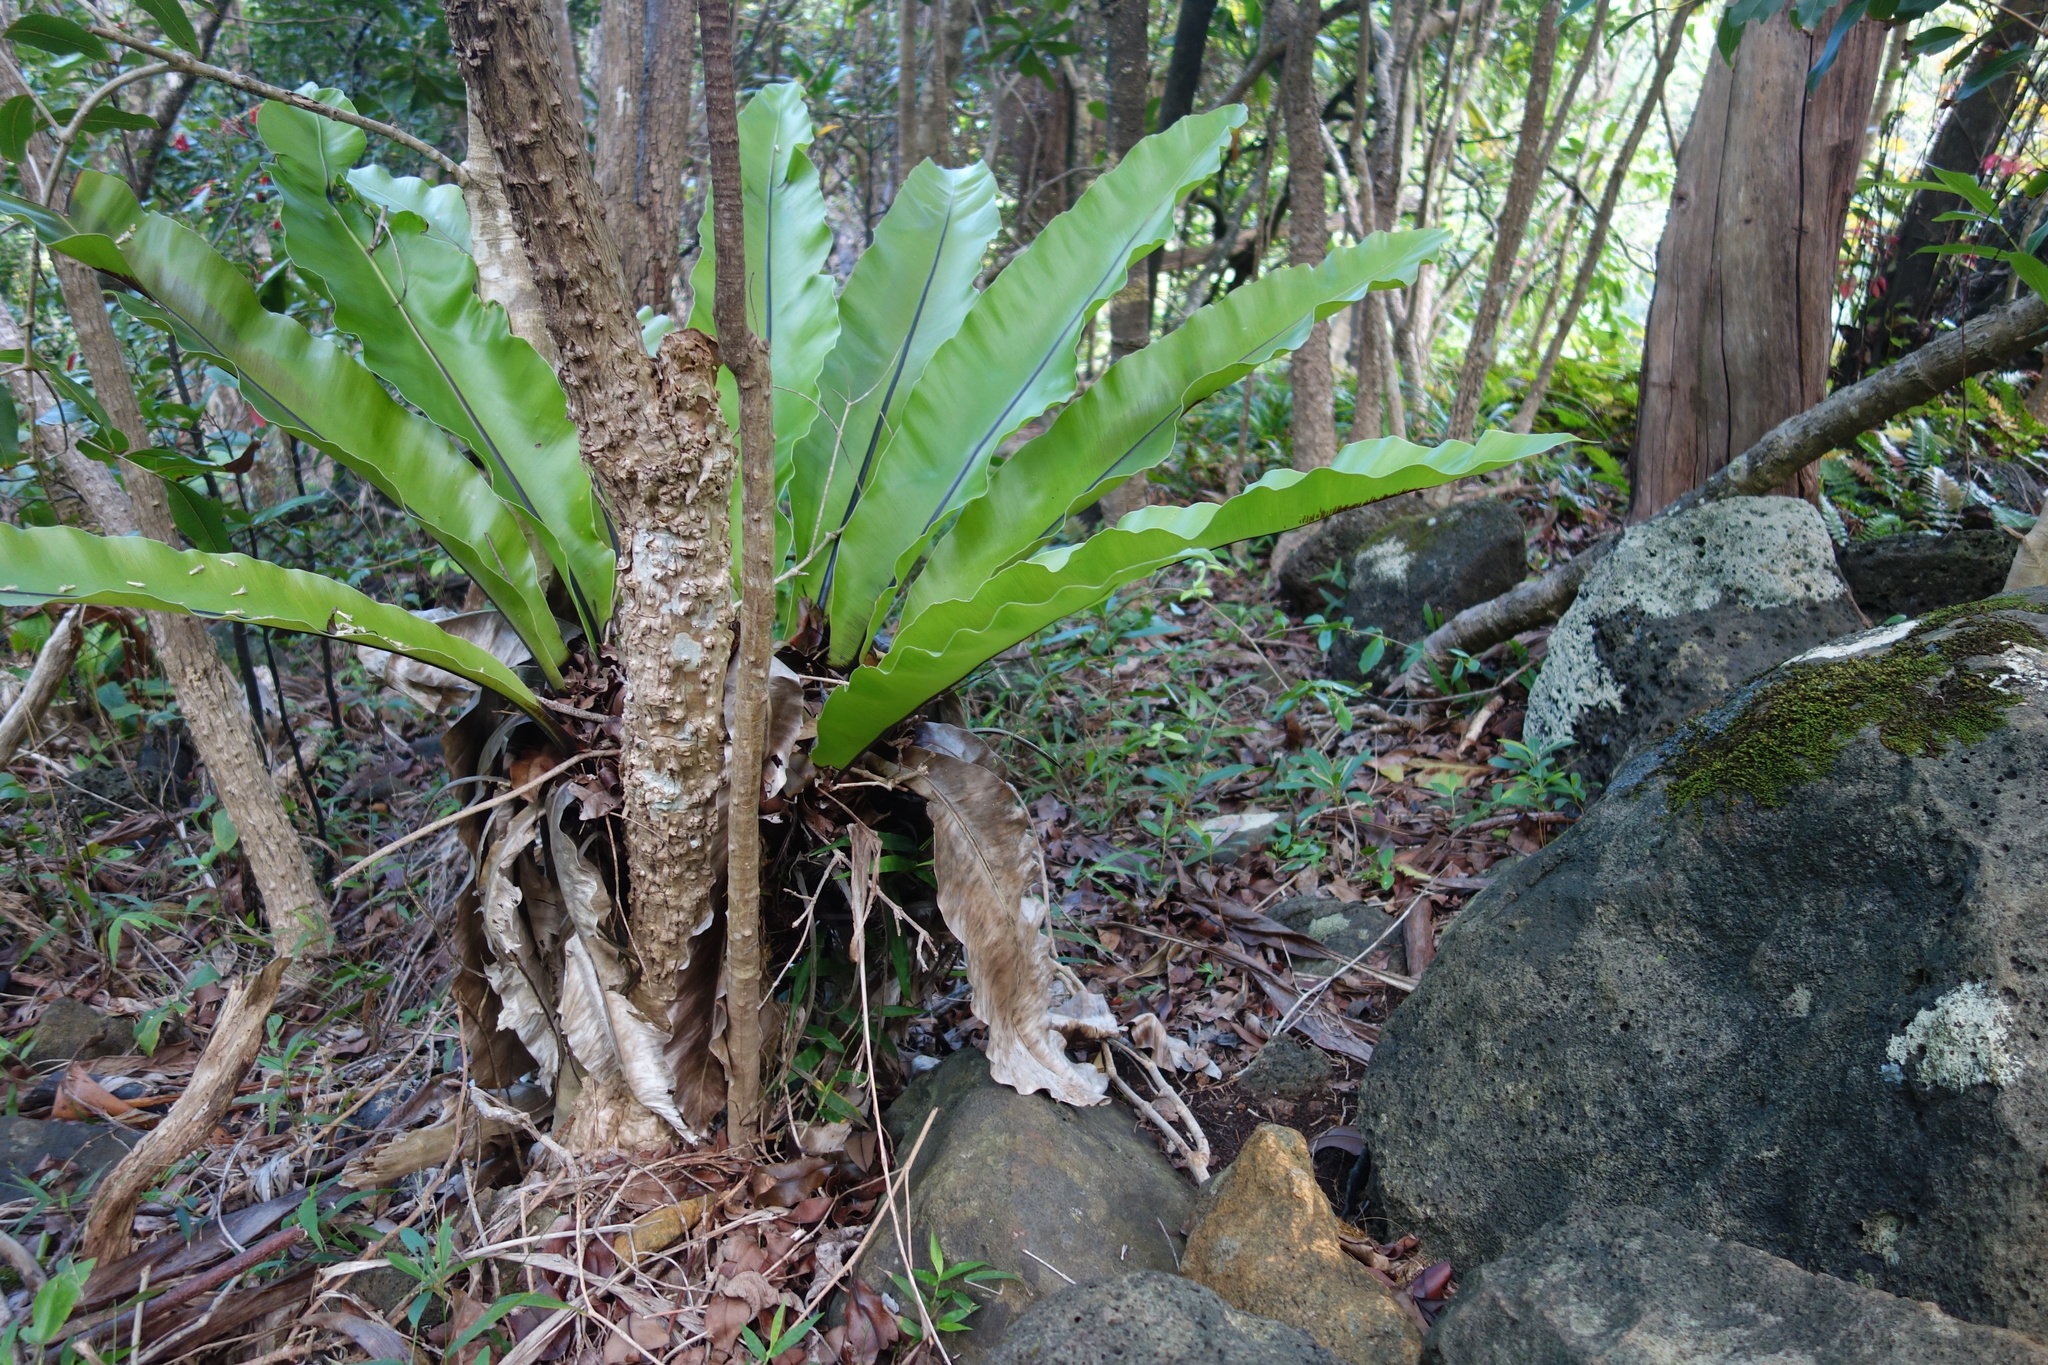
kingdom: Plantae
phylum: Tracheophyta
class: Polypodiopsida
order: Polypodiales
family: Aspleniaceae
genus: Asplenium
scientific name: Asplenium nidus
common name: Bird's-nest fern
